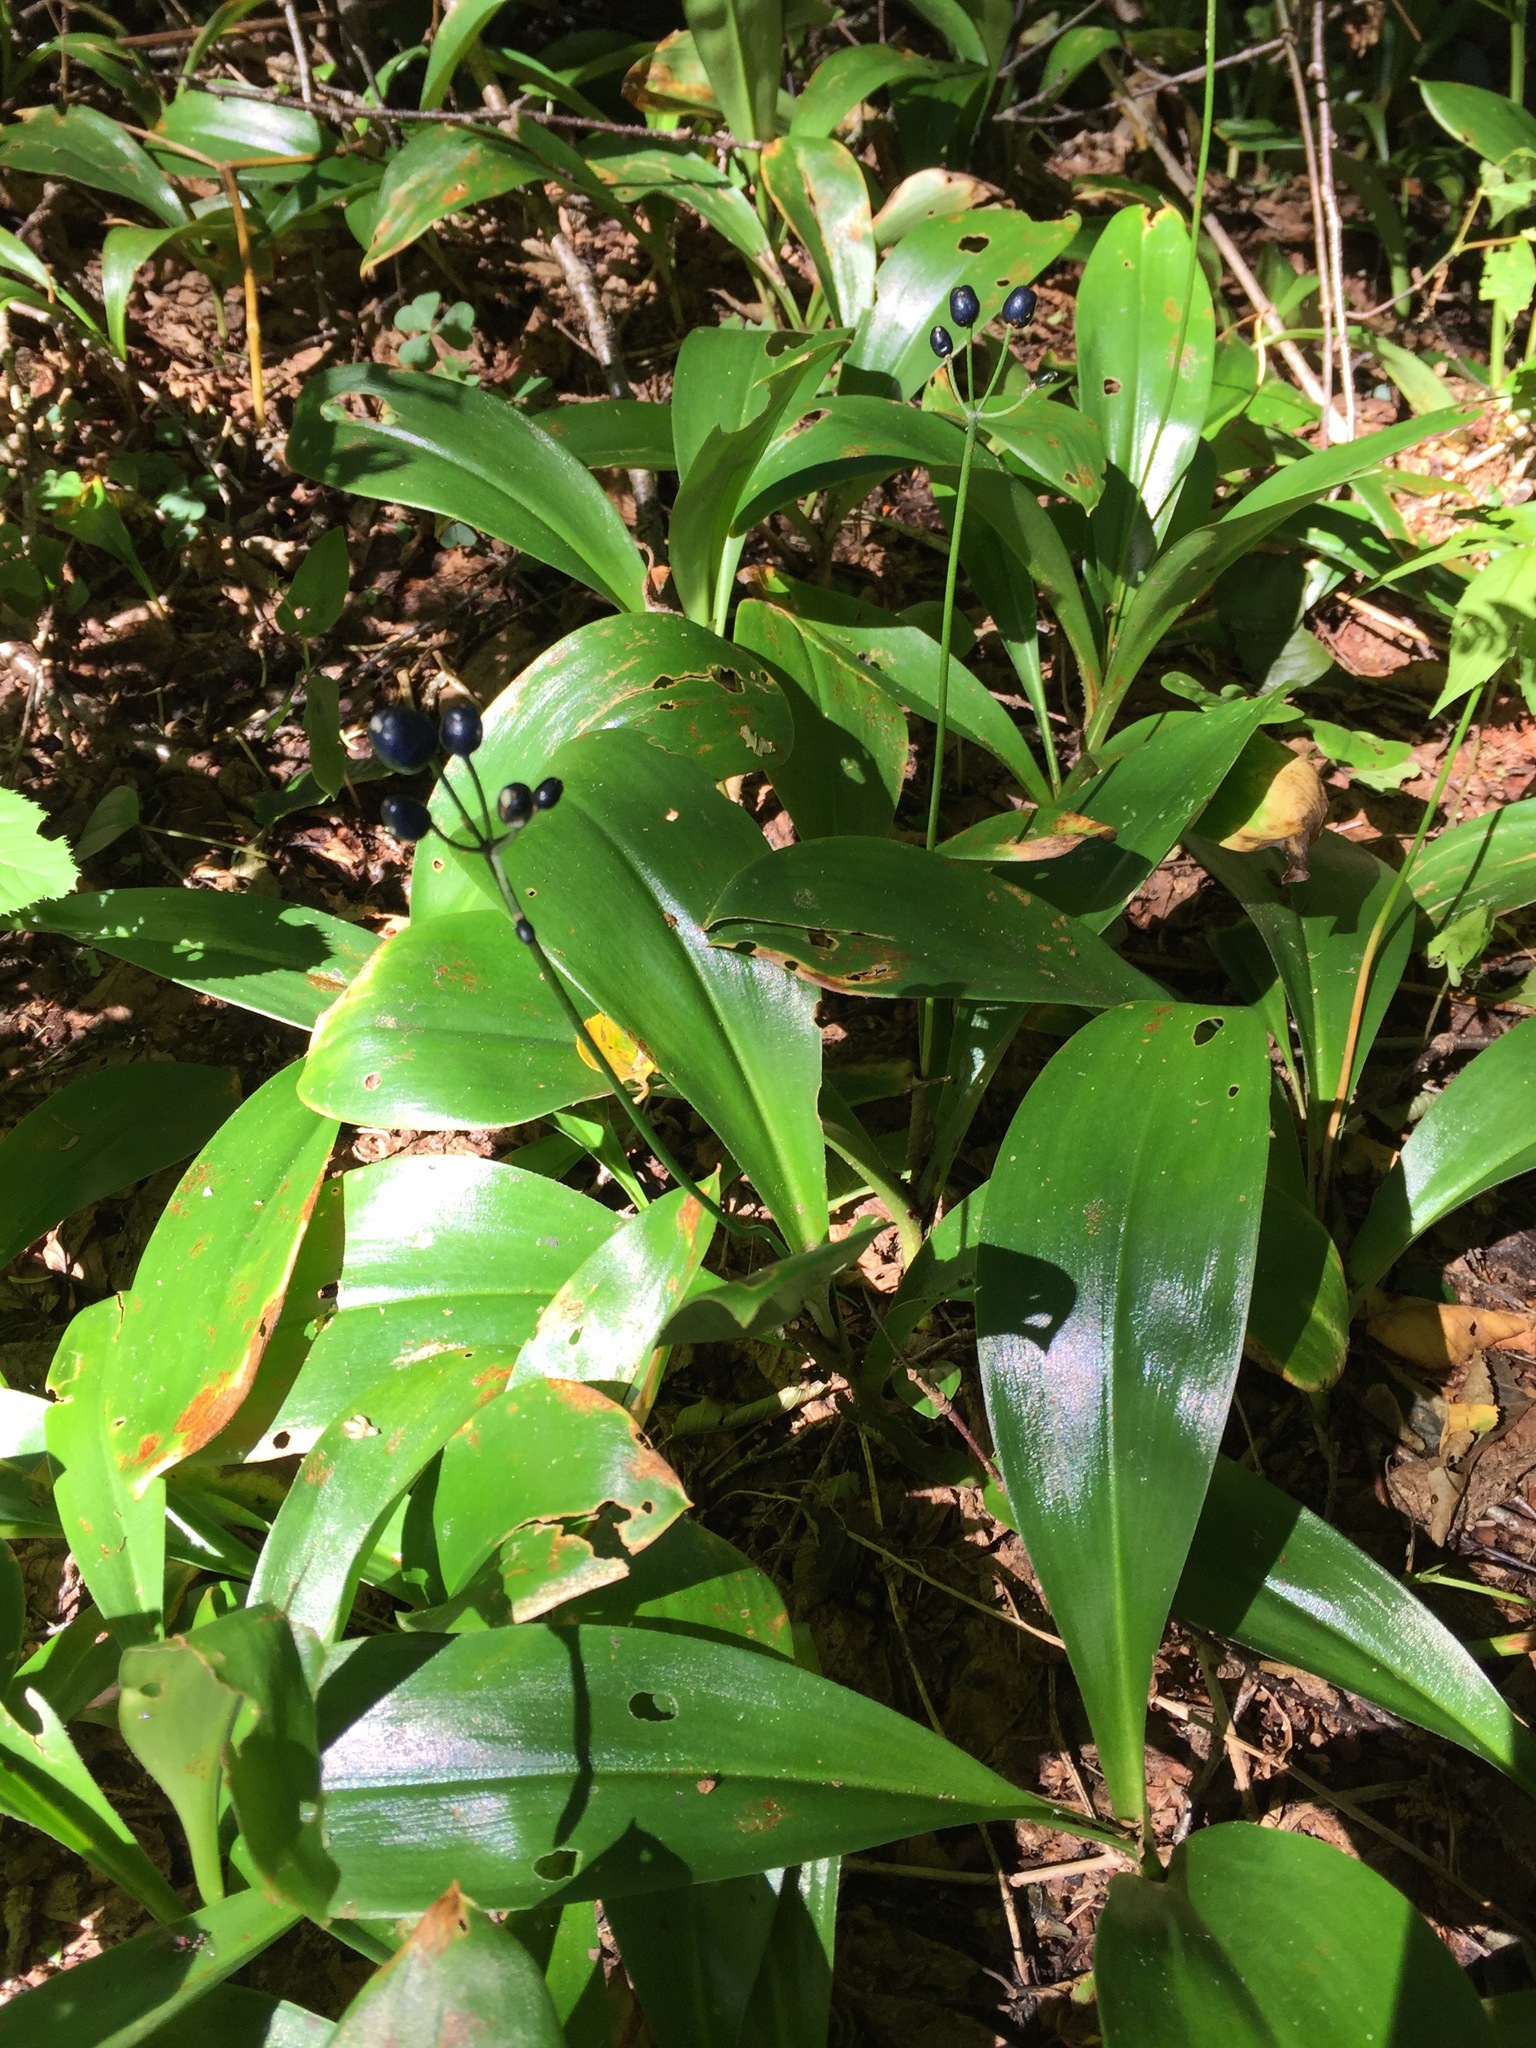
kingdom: Plantae
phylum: Tracheophyta
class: Liliopsida
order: Liliales
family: Liliaceae
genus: Clintonia
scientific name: Clintonia borealis
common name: Yellow clintonia
